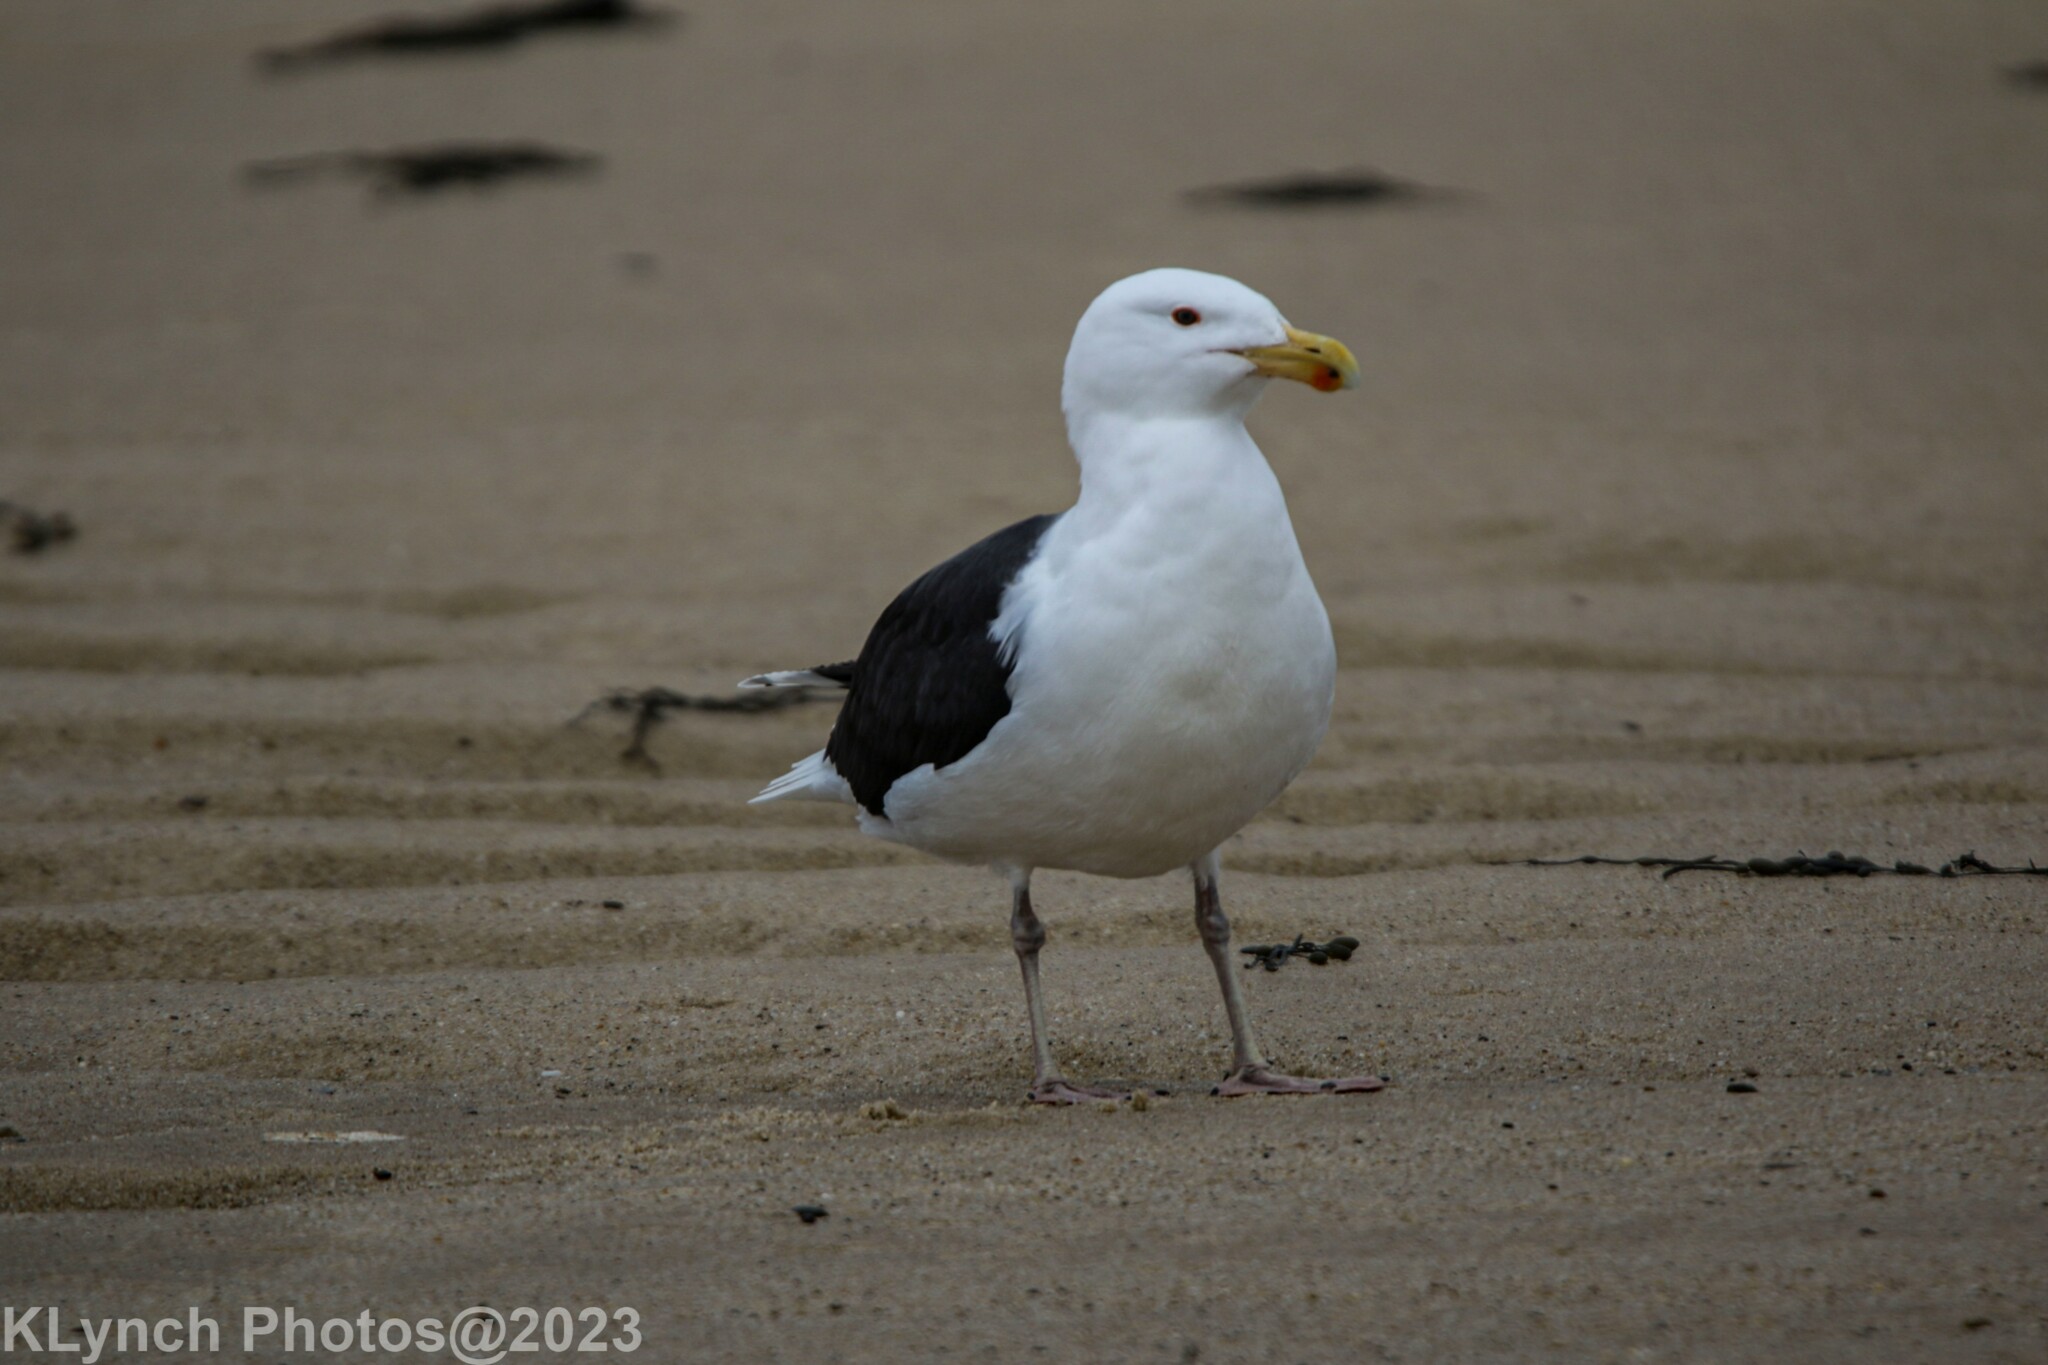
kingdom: Animalia
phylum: Chordata
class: Aves
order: Charadriiformes
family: Laridae
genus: Larus
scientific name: Larus marinus
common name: Great black-backed gull
